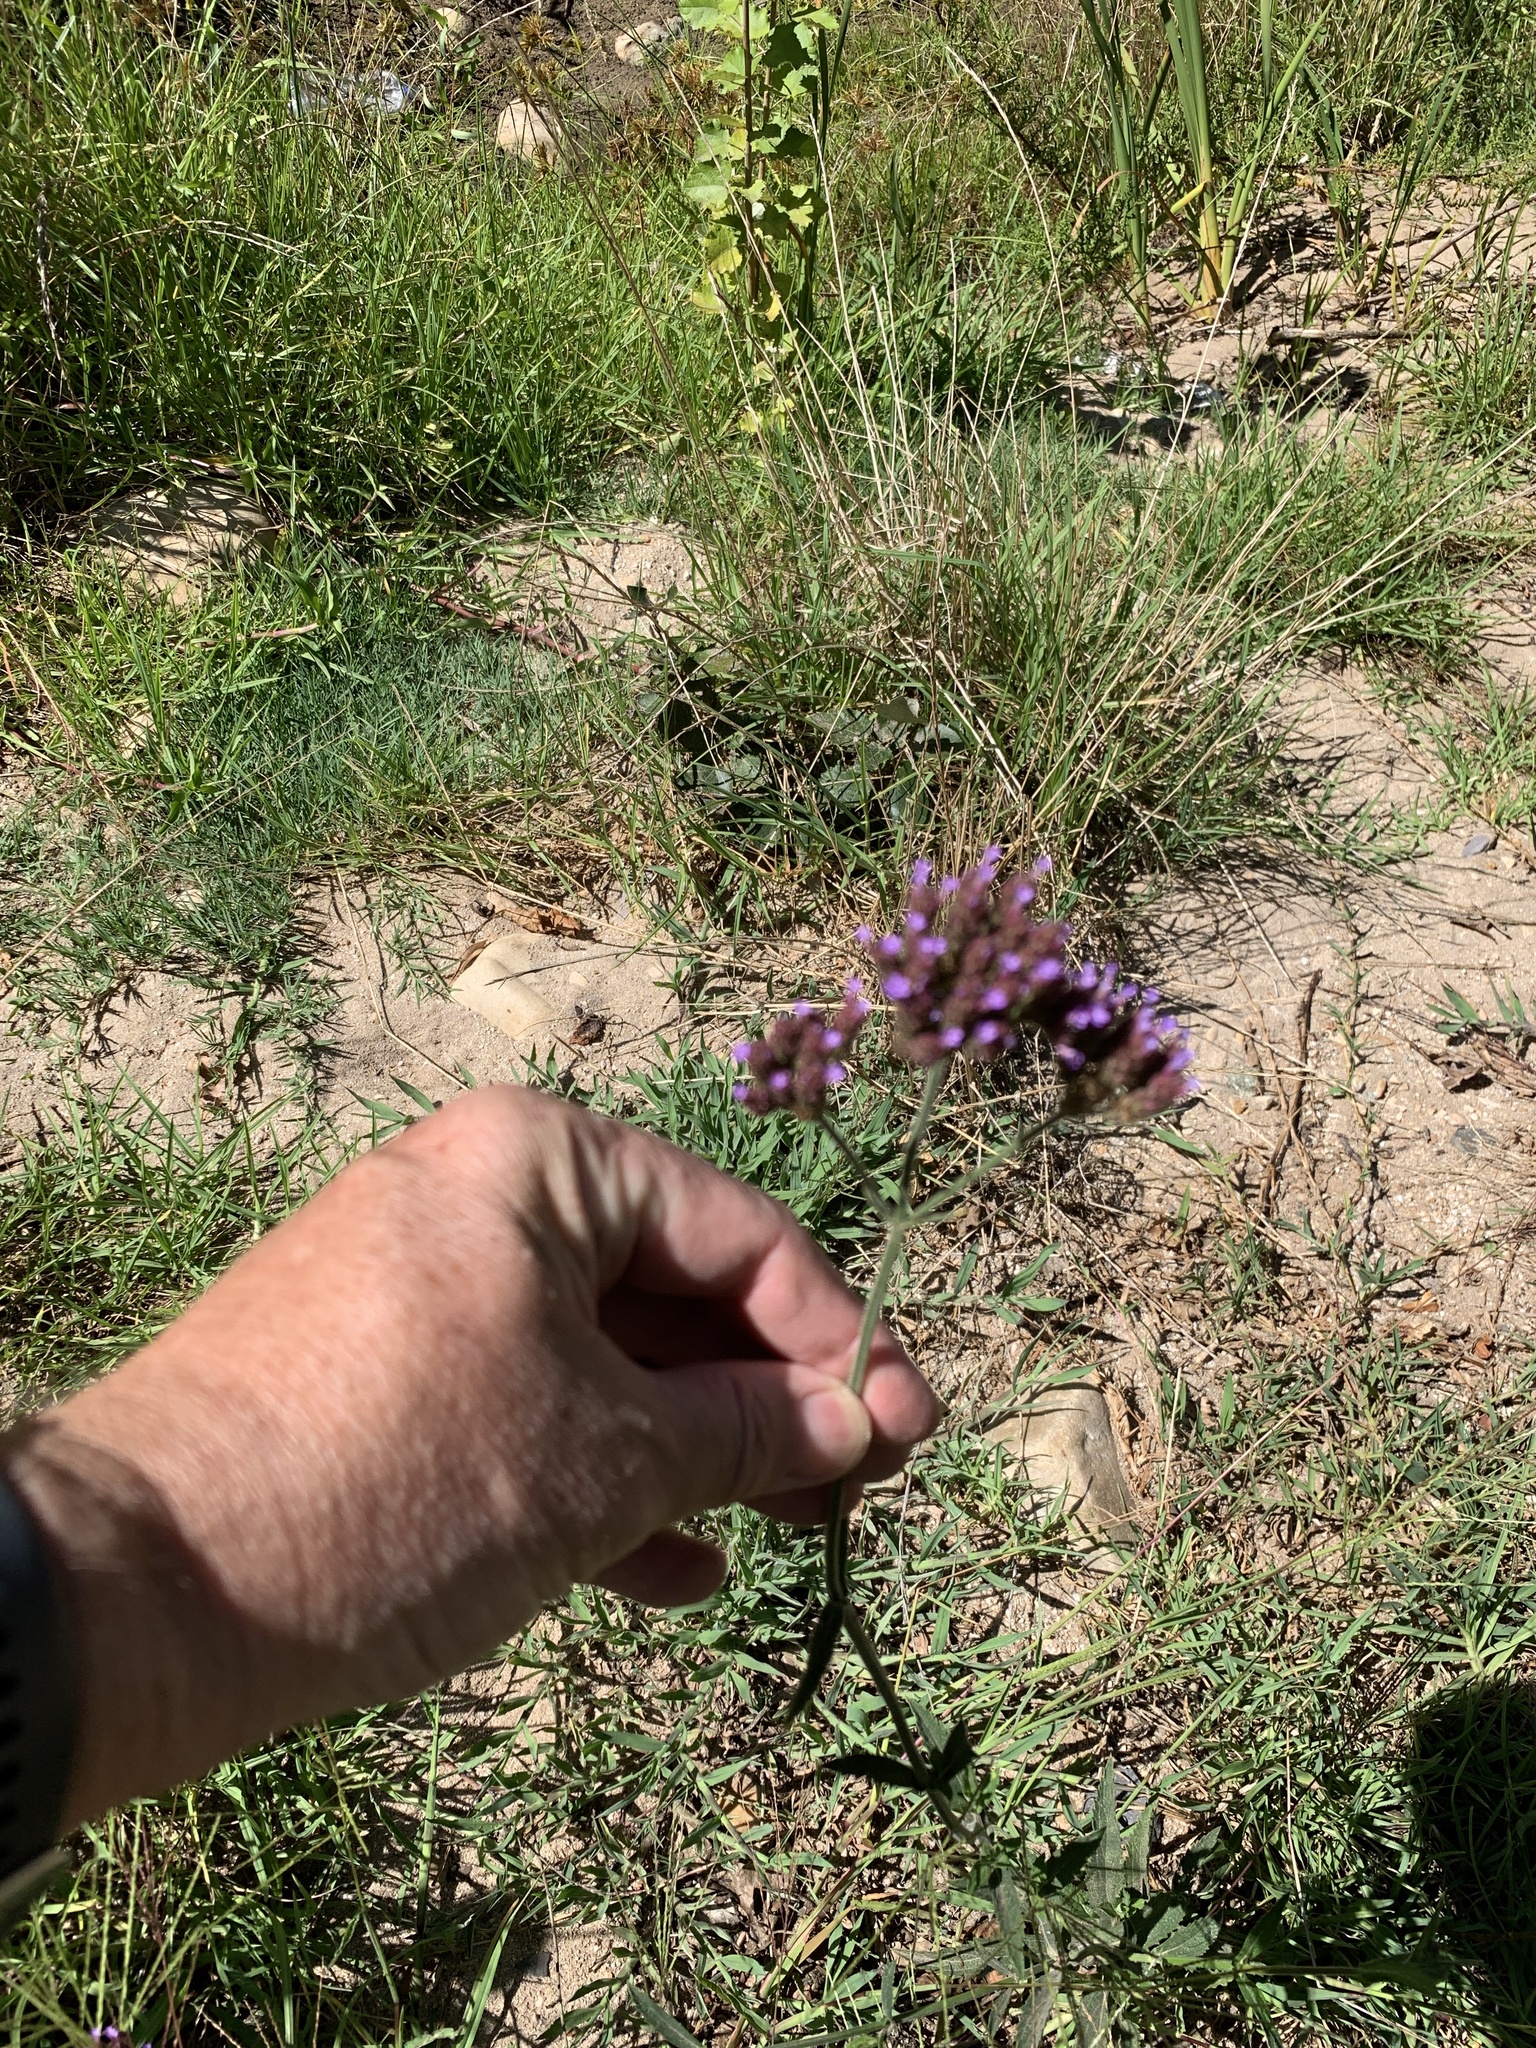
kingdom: Plantae
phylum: Tracheophyta
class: Magnoliopsida
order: Lamiales
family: Verbenaceae
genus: Verbena
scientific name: Verbena bonariensis
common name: Purpletop vervain
